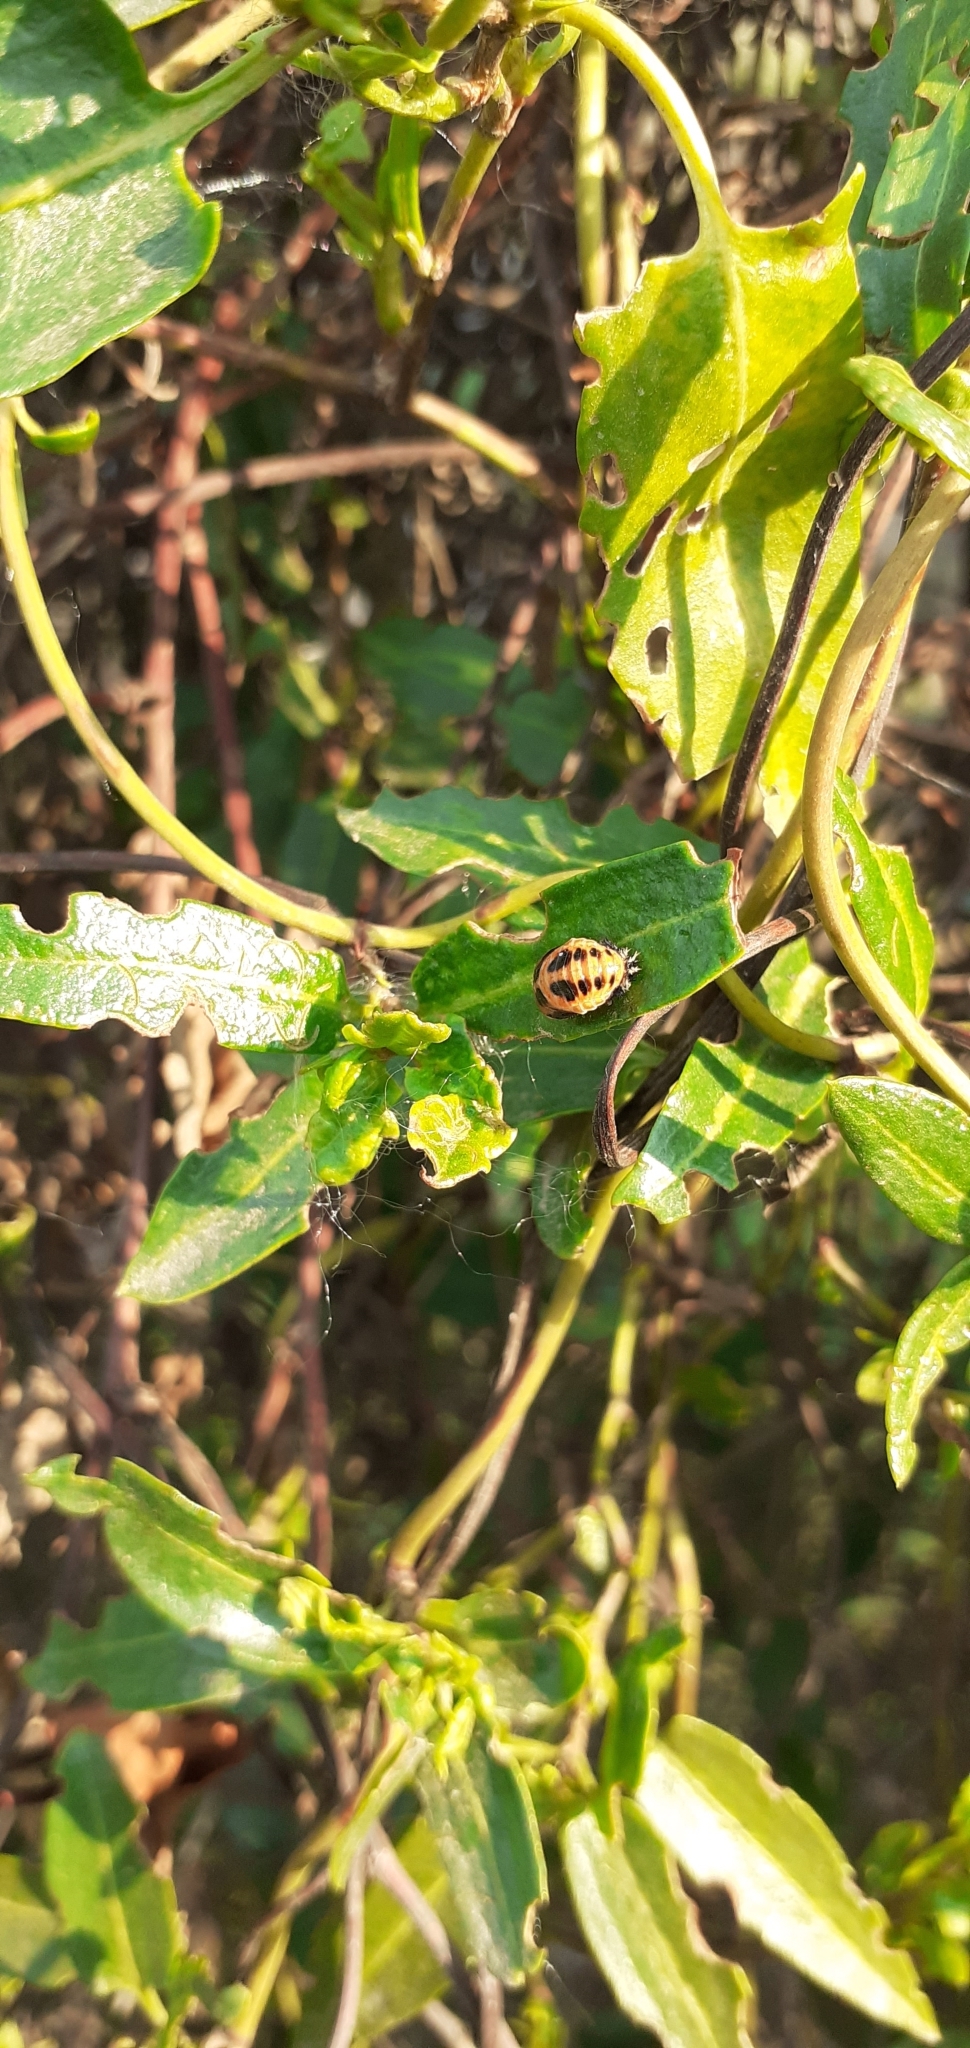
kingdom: Animalia
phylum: Arthropoda
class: Insecta
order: Coleoptera
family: Coccinellidae
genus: Harmonia
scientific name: Harmonia axyridis
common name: Harlequin ladybird
